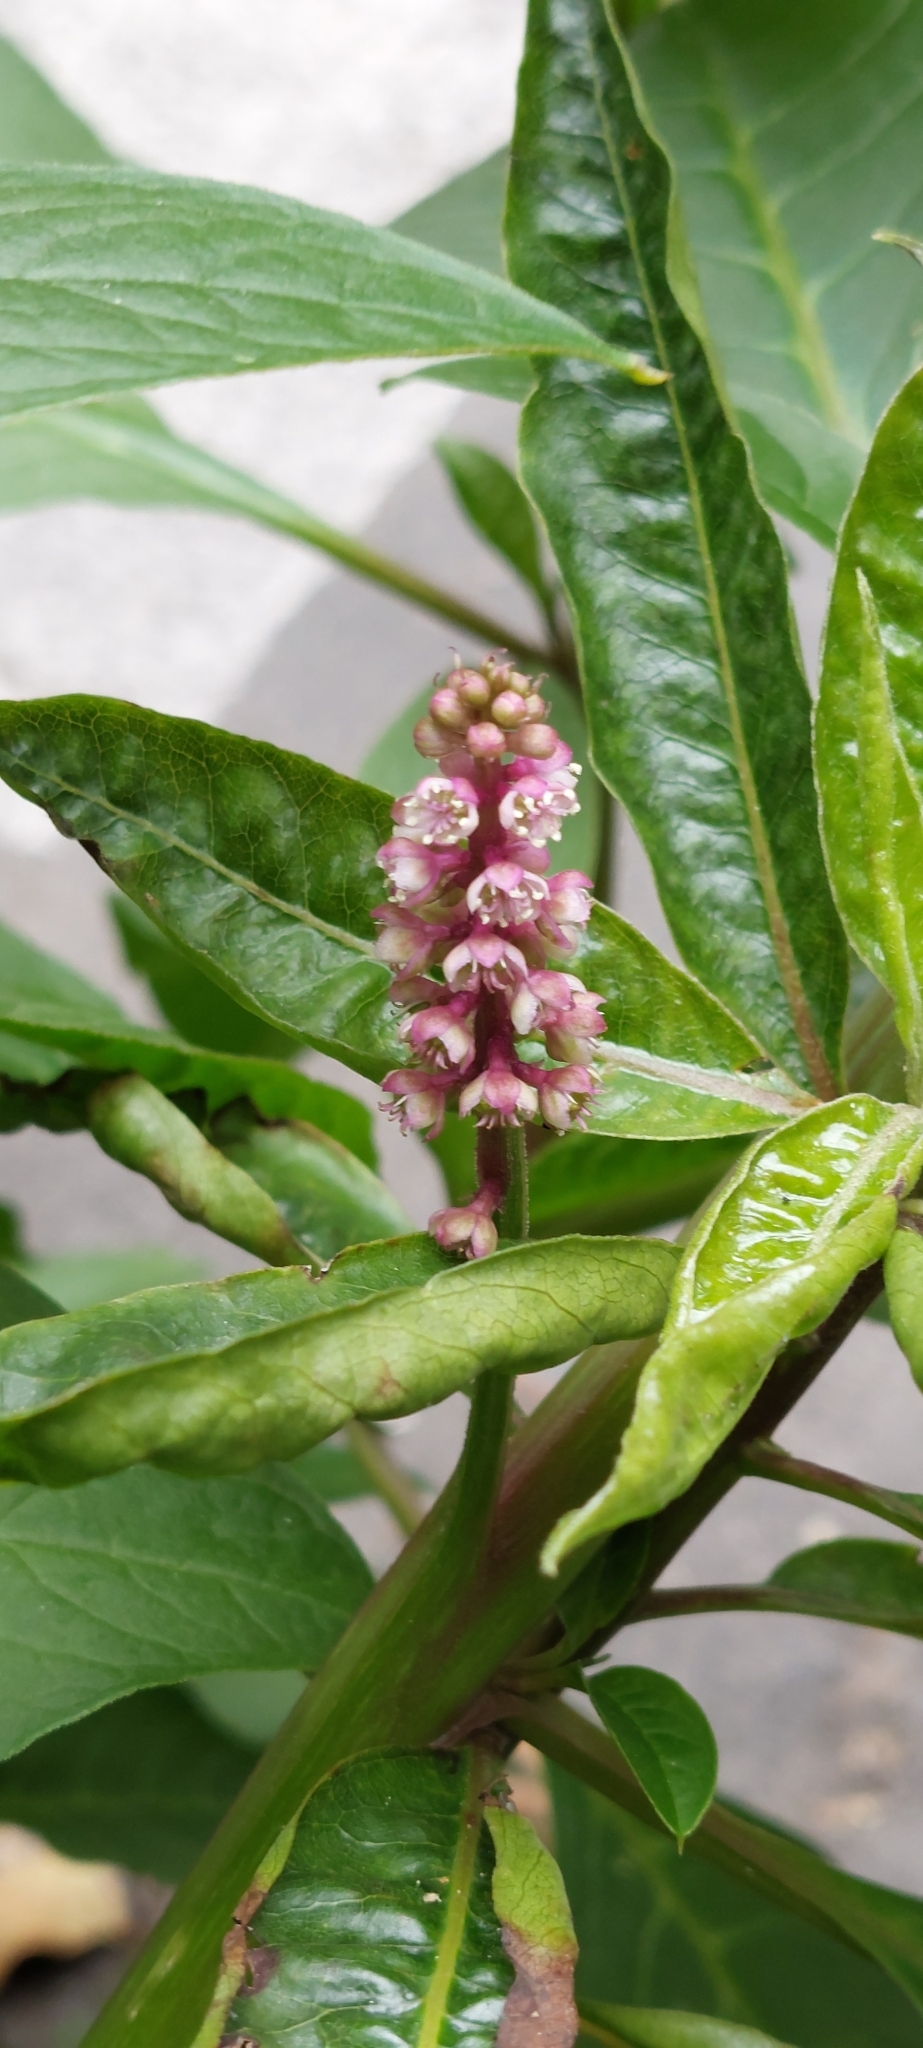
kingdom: Plantae
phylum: Tracheophyta
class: Magnoliopsida
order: Caryophyllales
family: Phytolaccaceae
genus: Phytolacca
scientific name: Phytolacca bogotensis
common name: Southern pokeweed
